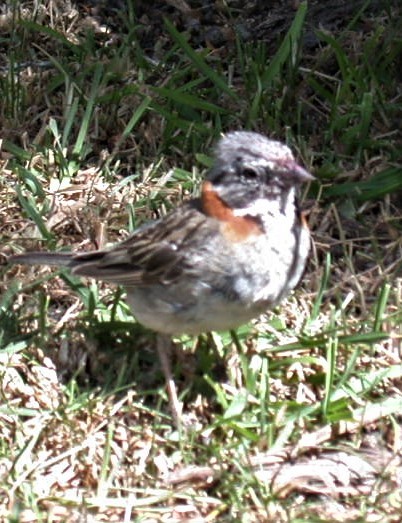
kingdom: Animalia
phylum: Chordata
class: Aves
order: Passeriformes
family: Passerellidae
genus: Zonotrichia
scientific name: Zonotrichia capensis
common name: Rufous-collared sparrow
